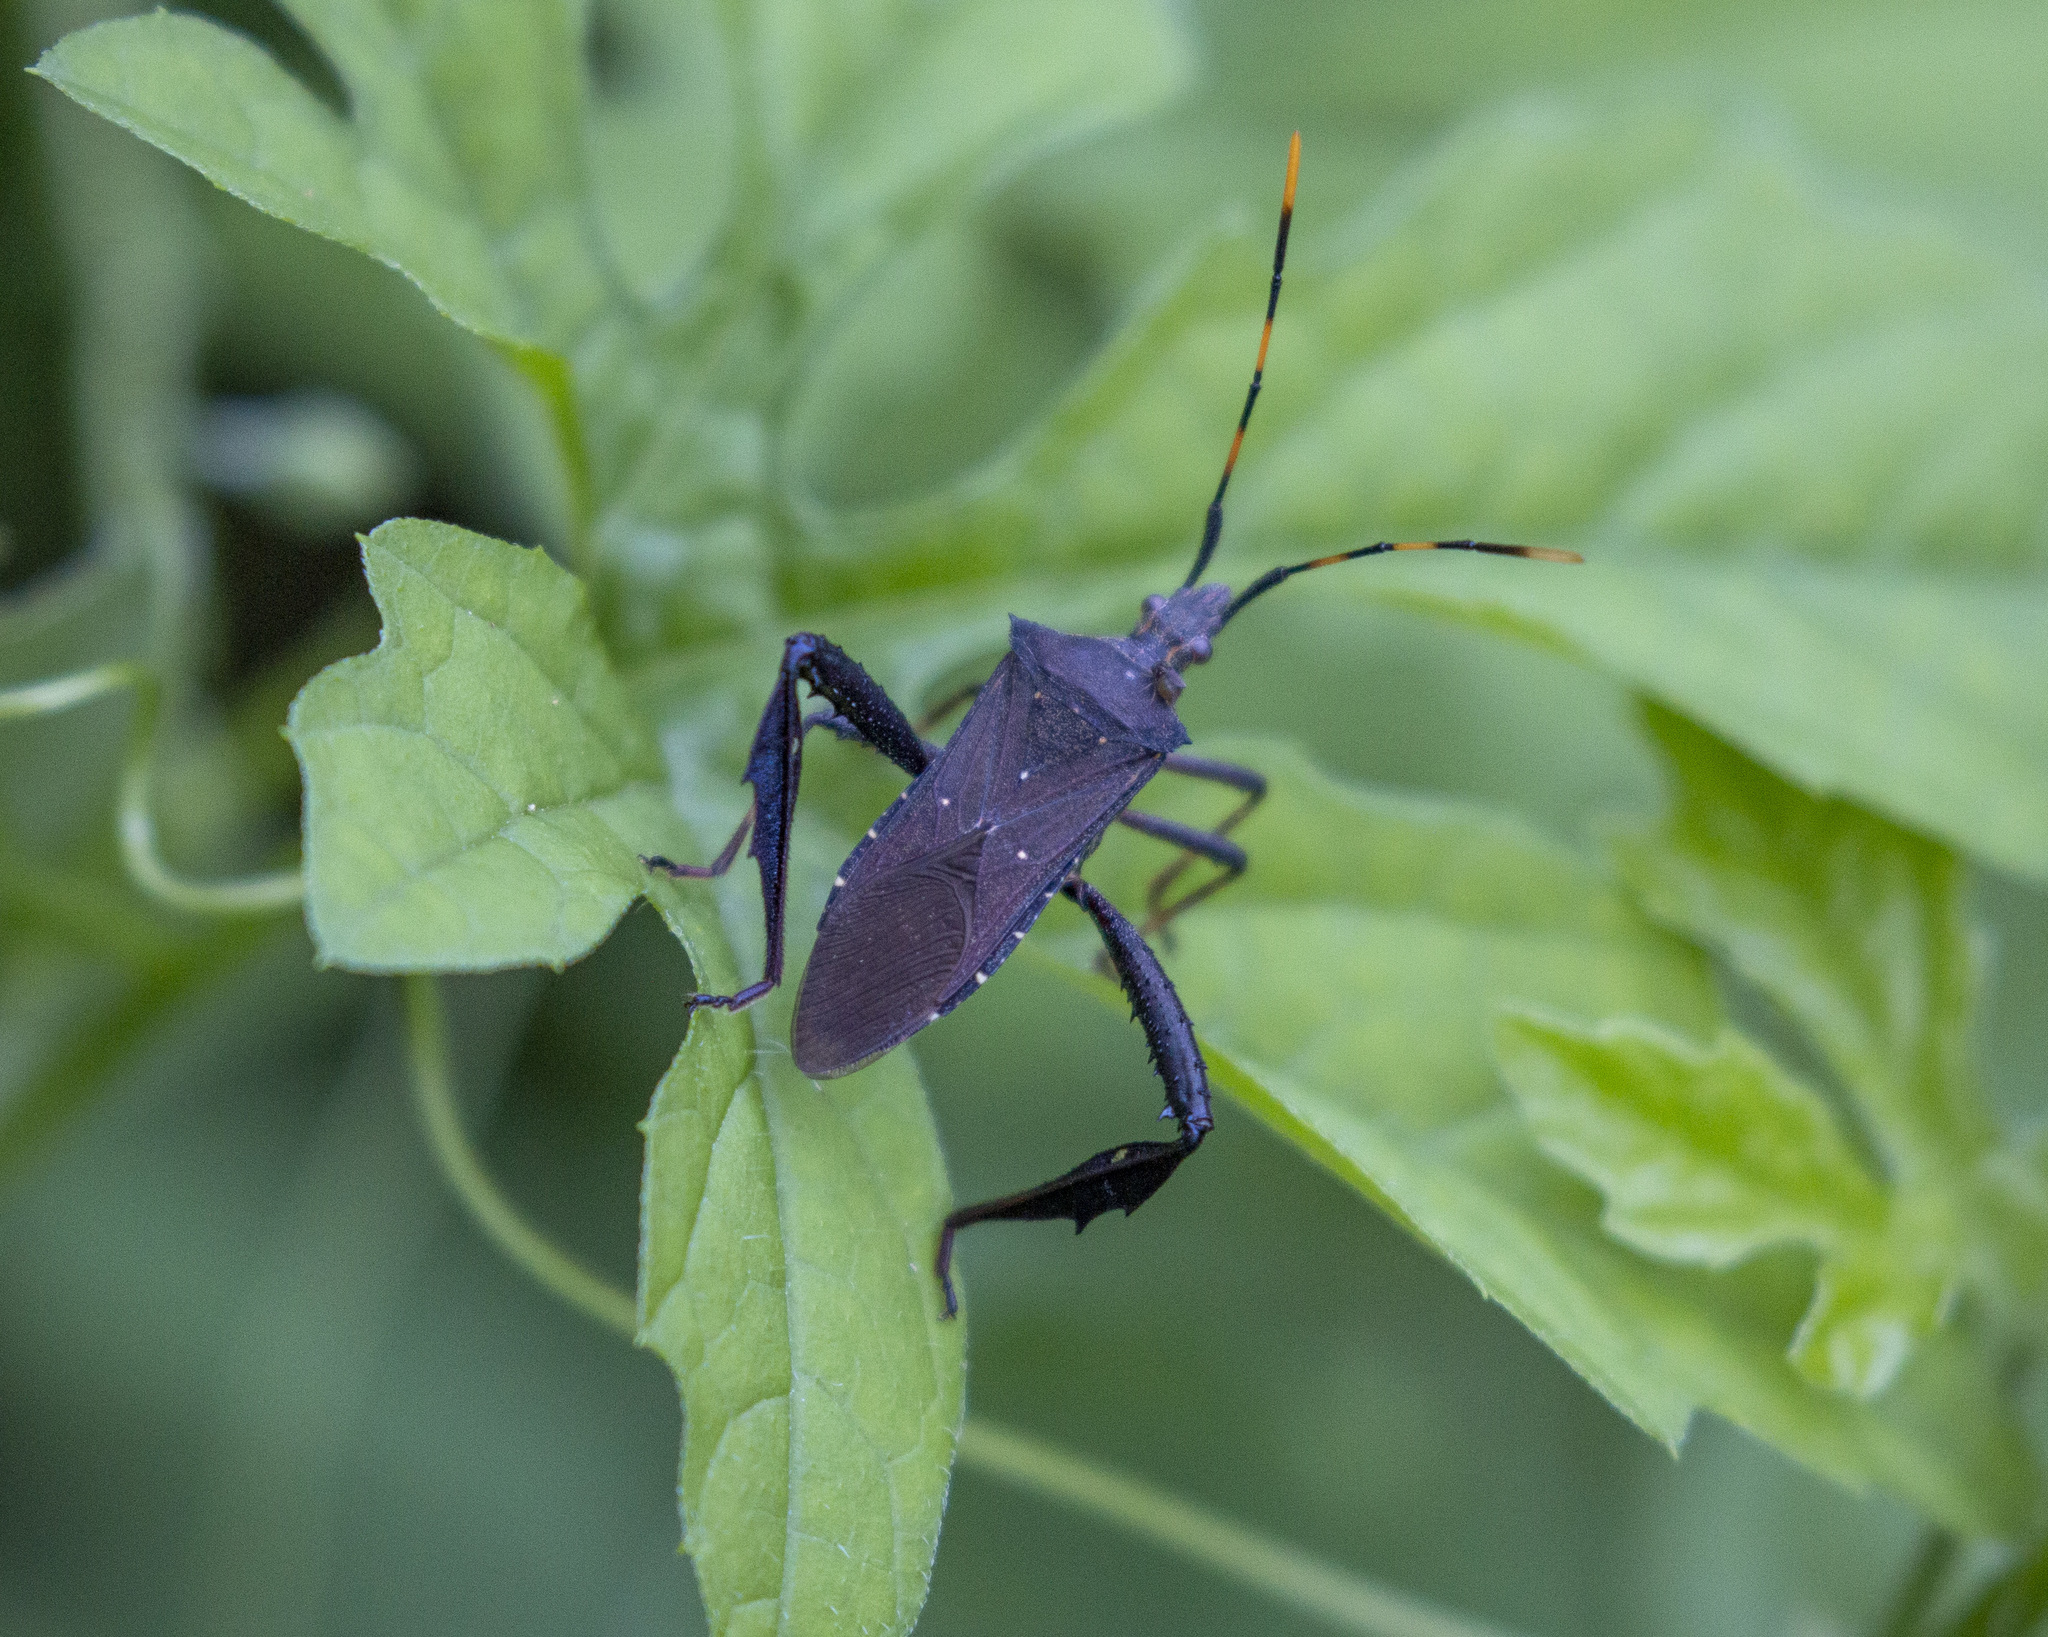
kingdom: Animalia
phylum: Arthropoda
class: Insecta
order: Hemiptera
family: Coreidae
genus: Leptoglossus
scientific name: Leptoglossus gonagra
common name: Citron bug
